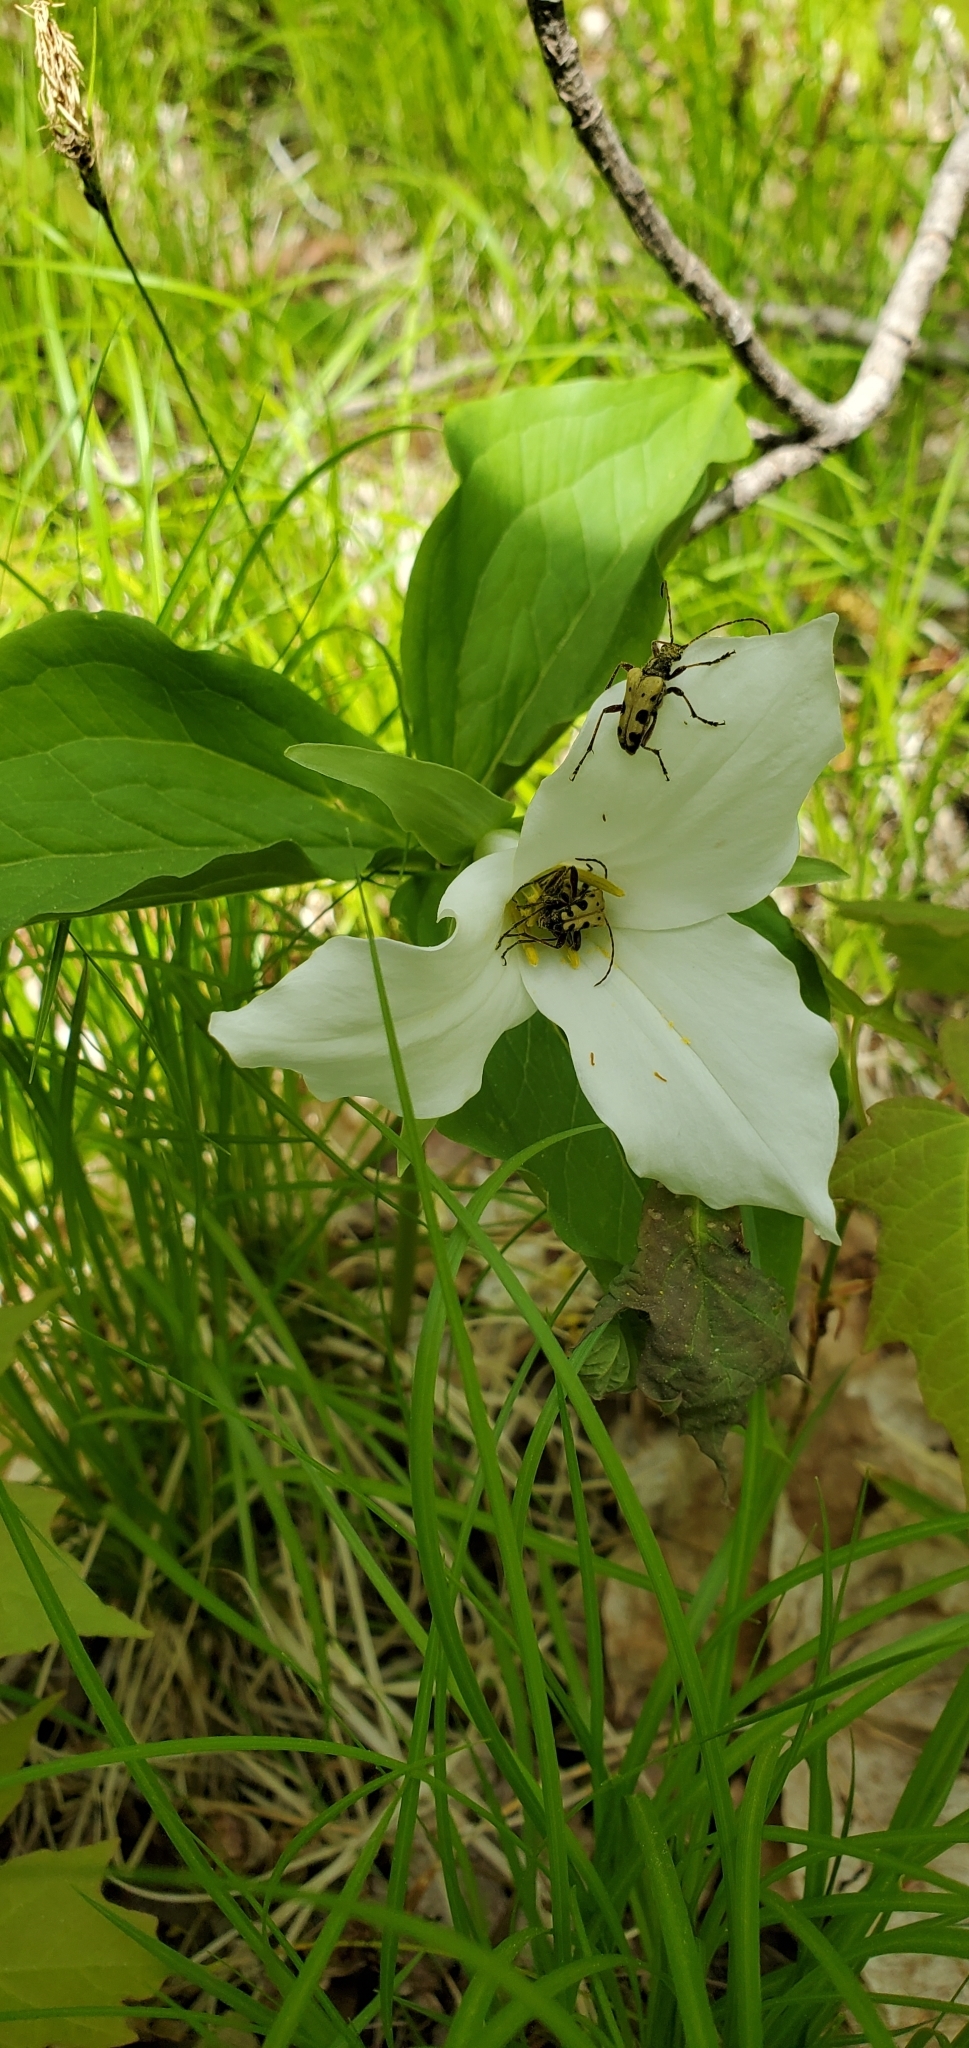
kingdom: Plantae
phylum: Tracheophyta
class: Liliopsida
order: Liliales
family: Melanthiaceae
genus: Trillium
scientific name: Trillium grandiflorum
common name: Great white trillium
